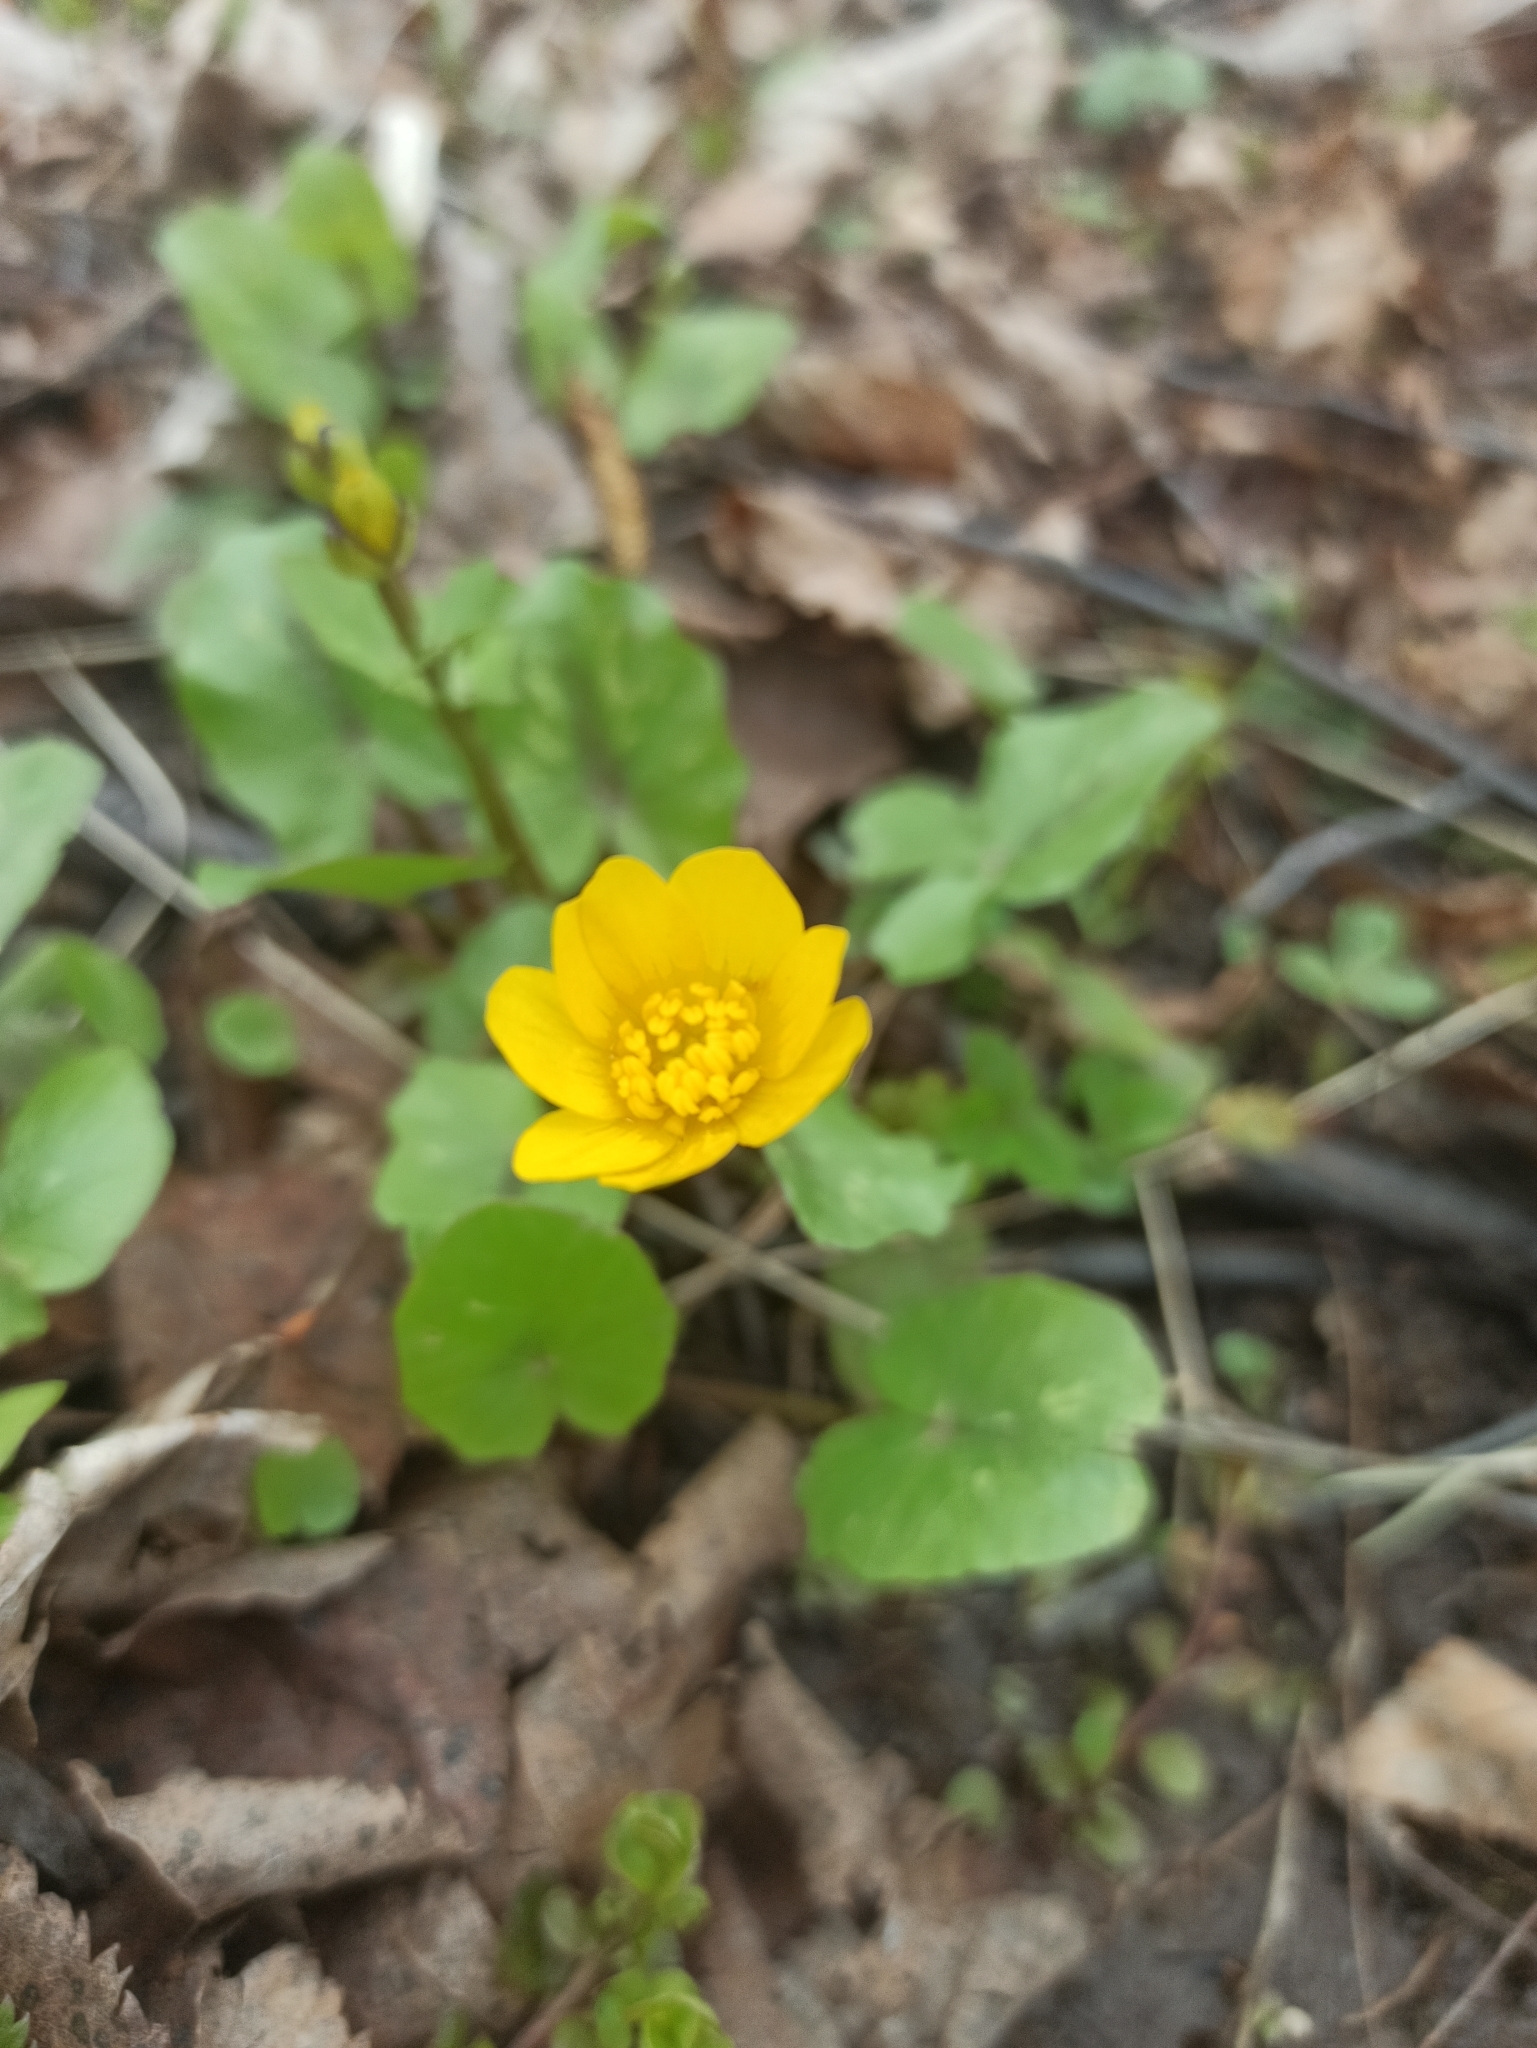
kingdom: Plantae
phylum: Tracheophyta
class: Magnoliopsida
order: Ranunculales
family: Ranunculaceae
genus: Ficaria
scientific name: Ficaria verna
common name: Lesser celandine
